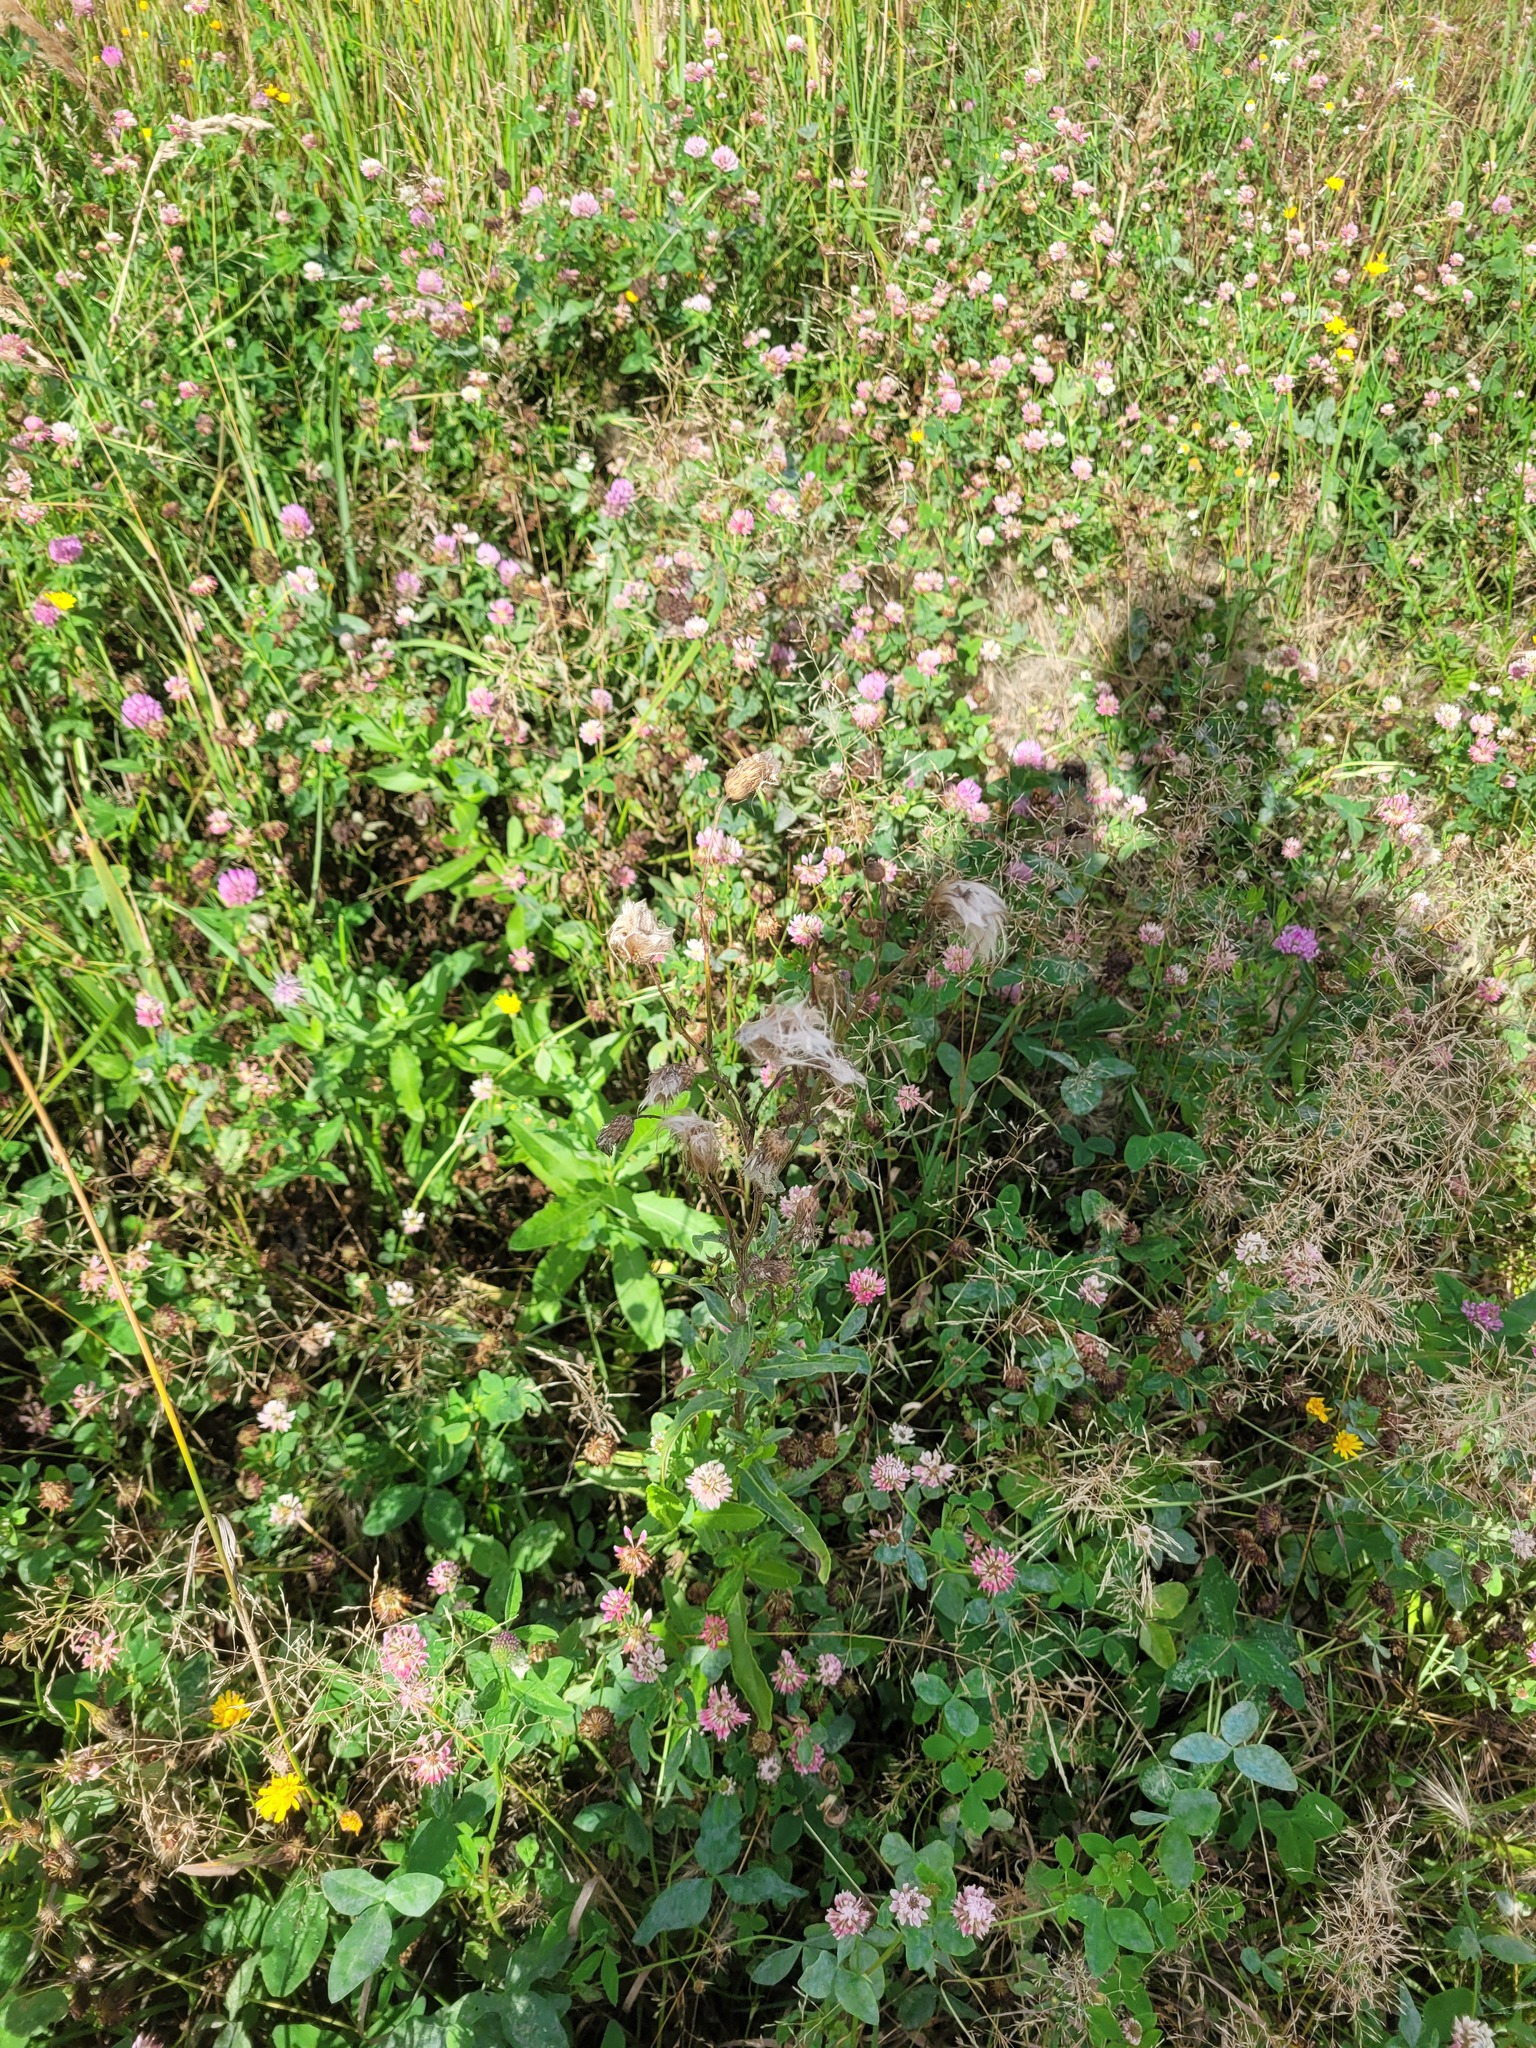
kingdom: Plantae
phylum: Tracheophyta
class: Magnoliopsida
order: Asterales
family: Asteraceae
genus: Cirsium
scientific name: Cirsium arvense
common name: Creeping thistle
